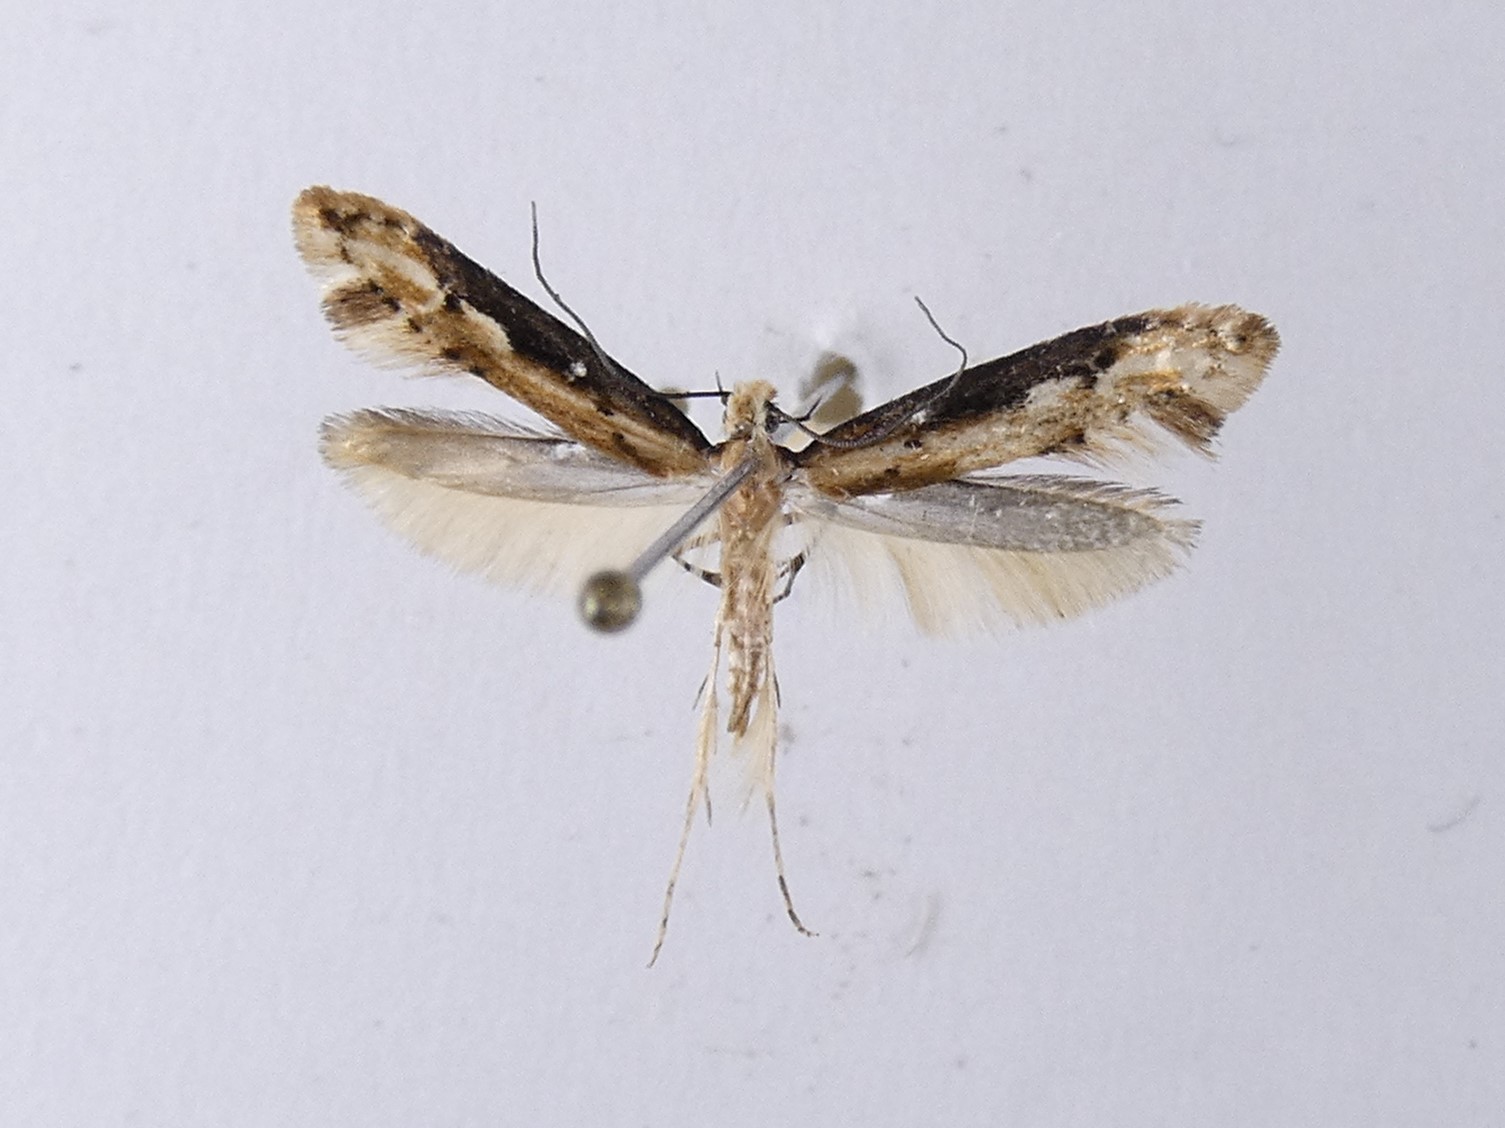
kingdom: Animalia
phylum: Arthropoda
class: Insecta
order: Lepidoptera
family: Tineidae
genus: Crypsitricha
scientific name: Crypsitricha generosa
